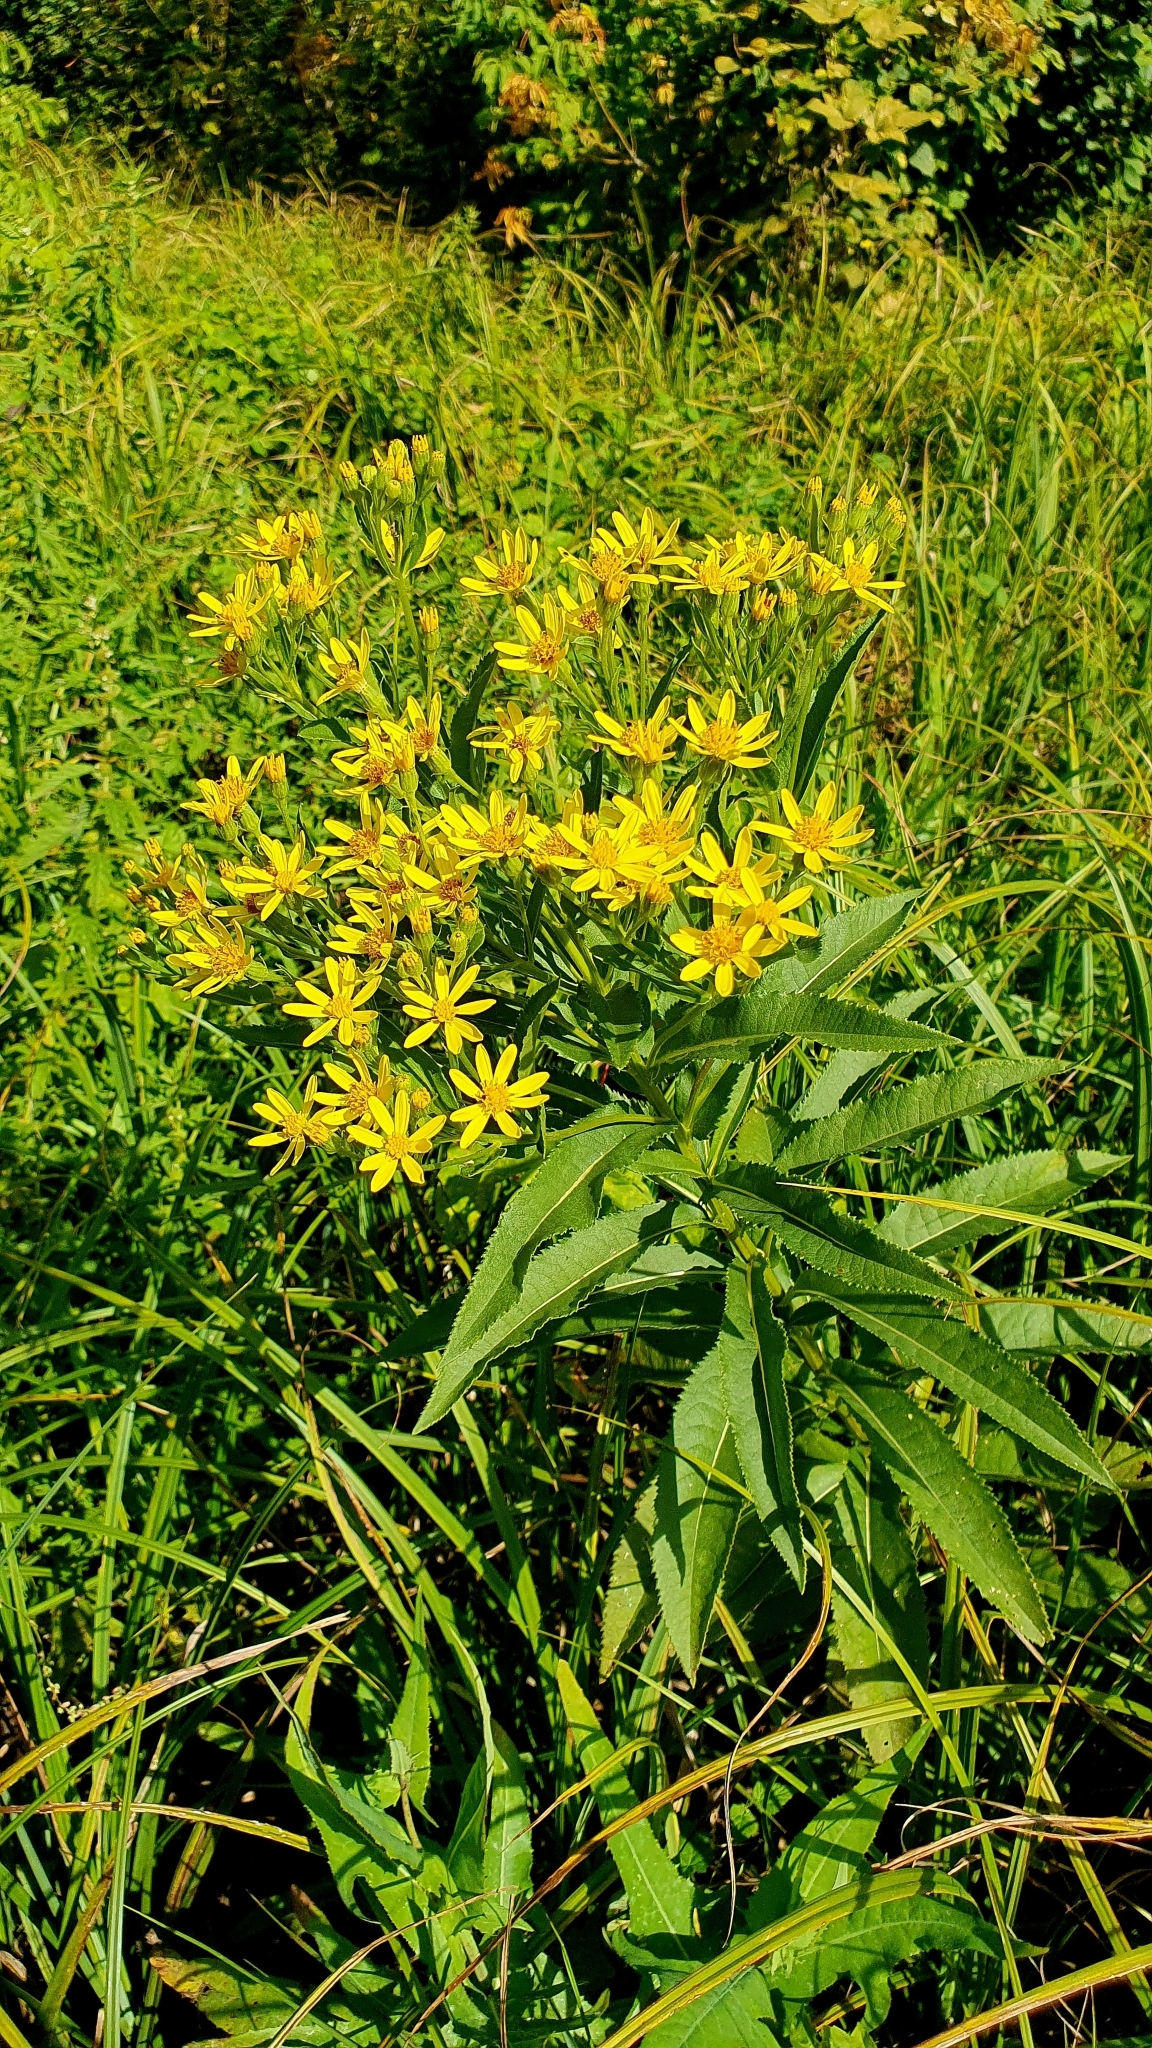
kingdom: Plantae
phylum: Tracheophyta
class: Magnoliopsida
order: Asterales
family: Asteraceae
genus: Senecio
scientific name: Senecio sarracenicus
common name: Broad-leaved ragwort
